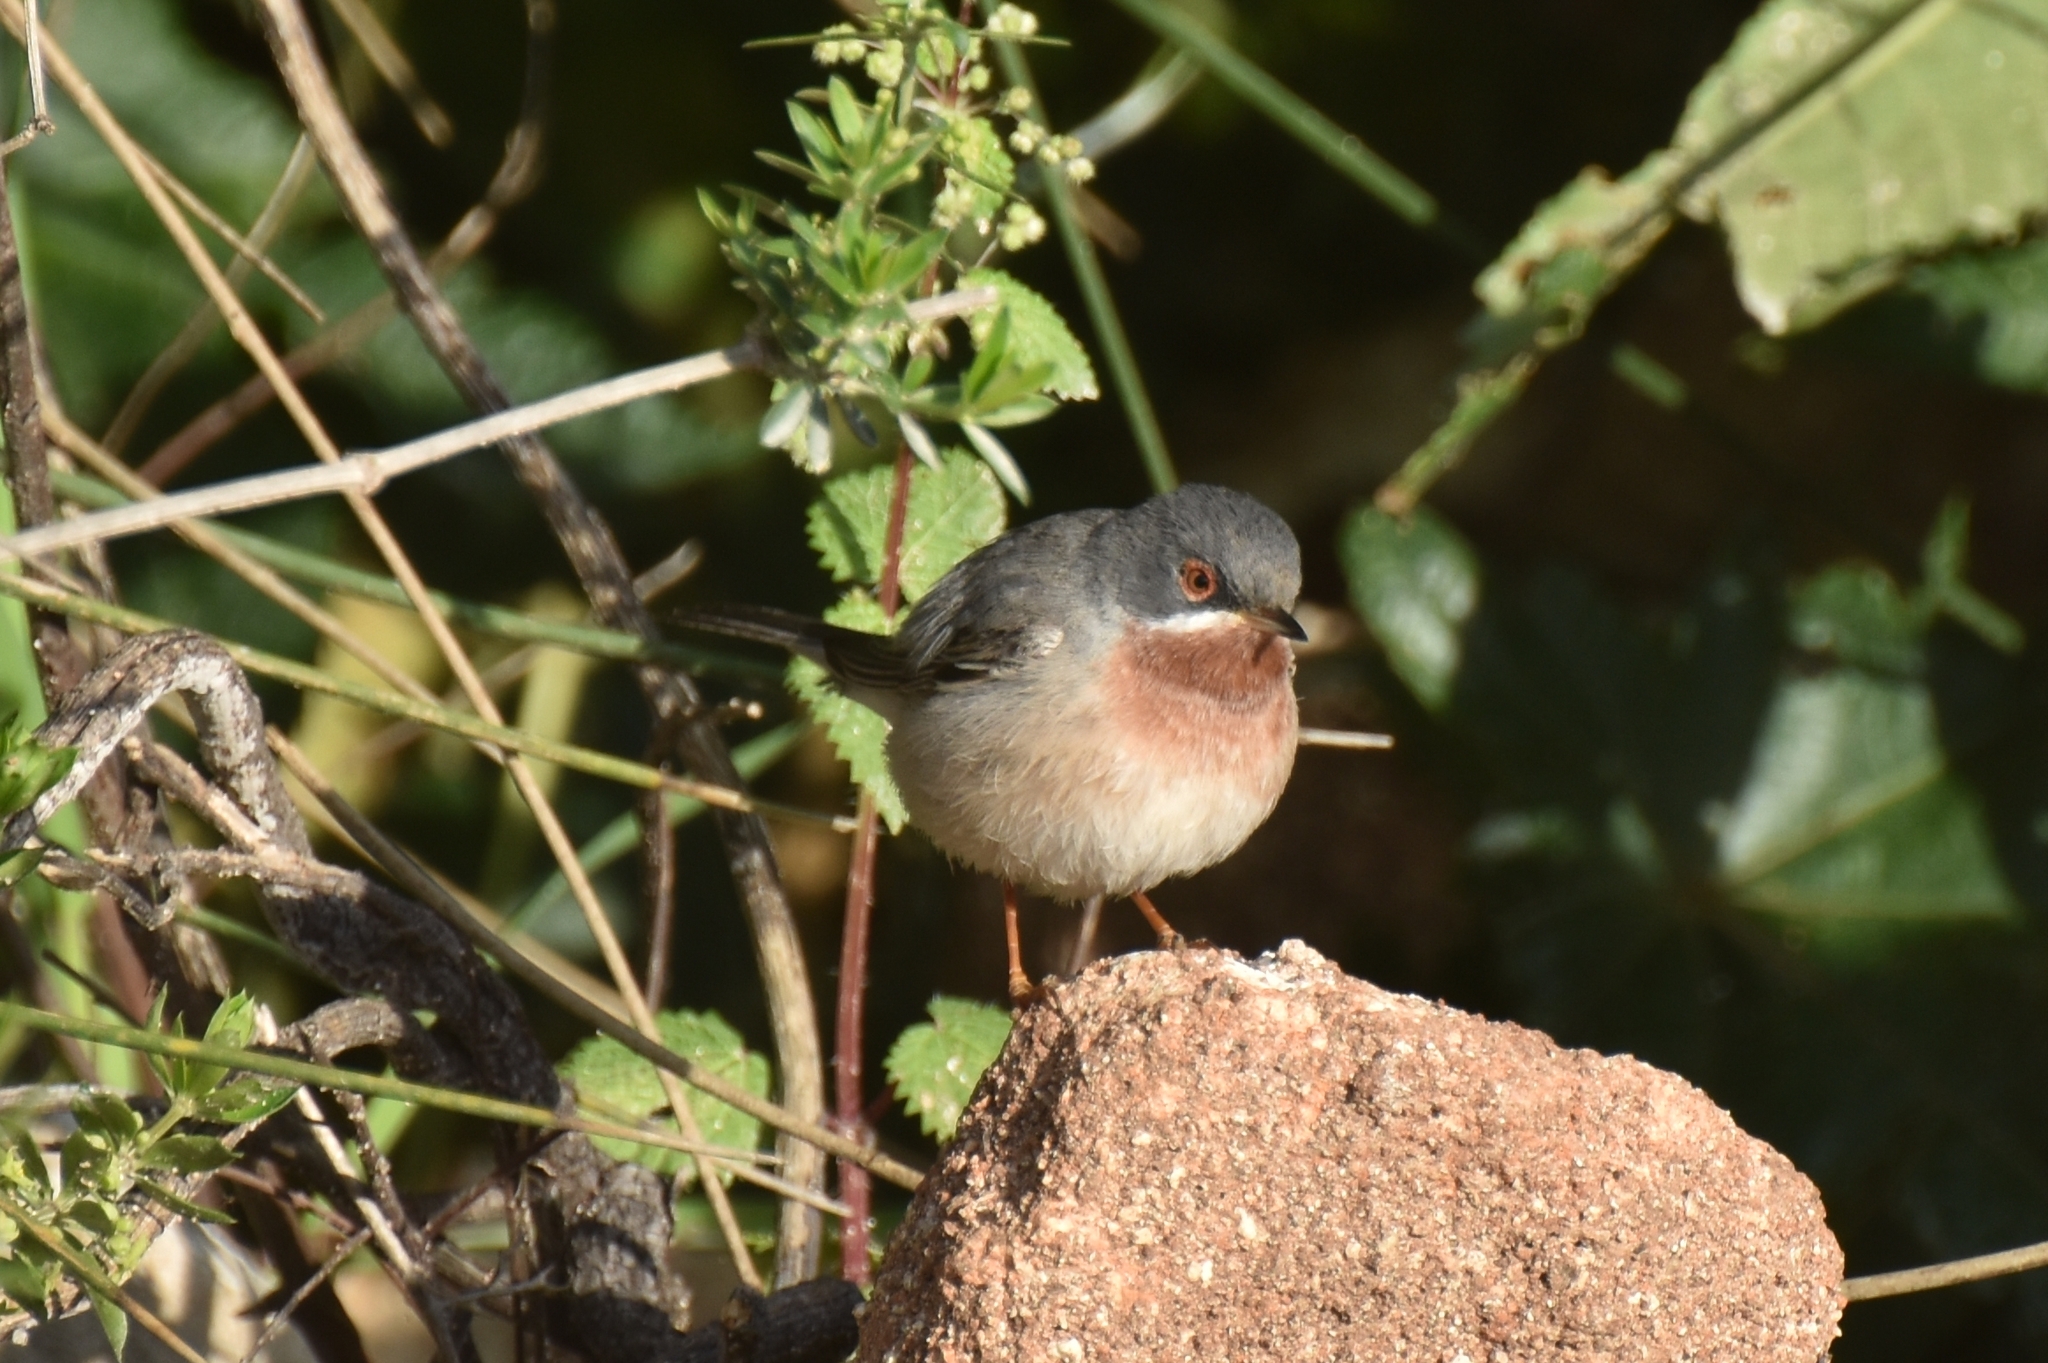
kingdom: Animalia
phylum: Chordata
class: Aves
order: Passeriformes
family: Sylviidae
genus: Curruca
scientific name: Curruca cantillans
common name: Subalpine warbler
